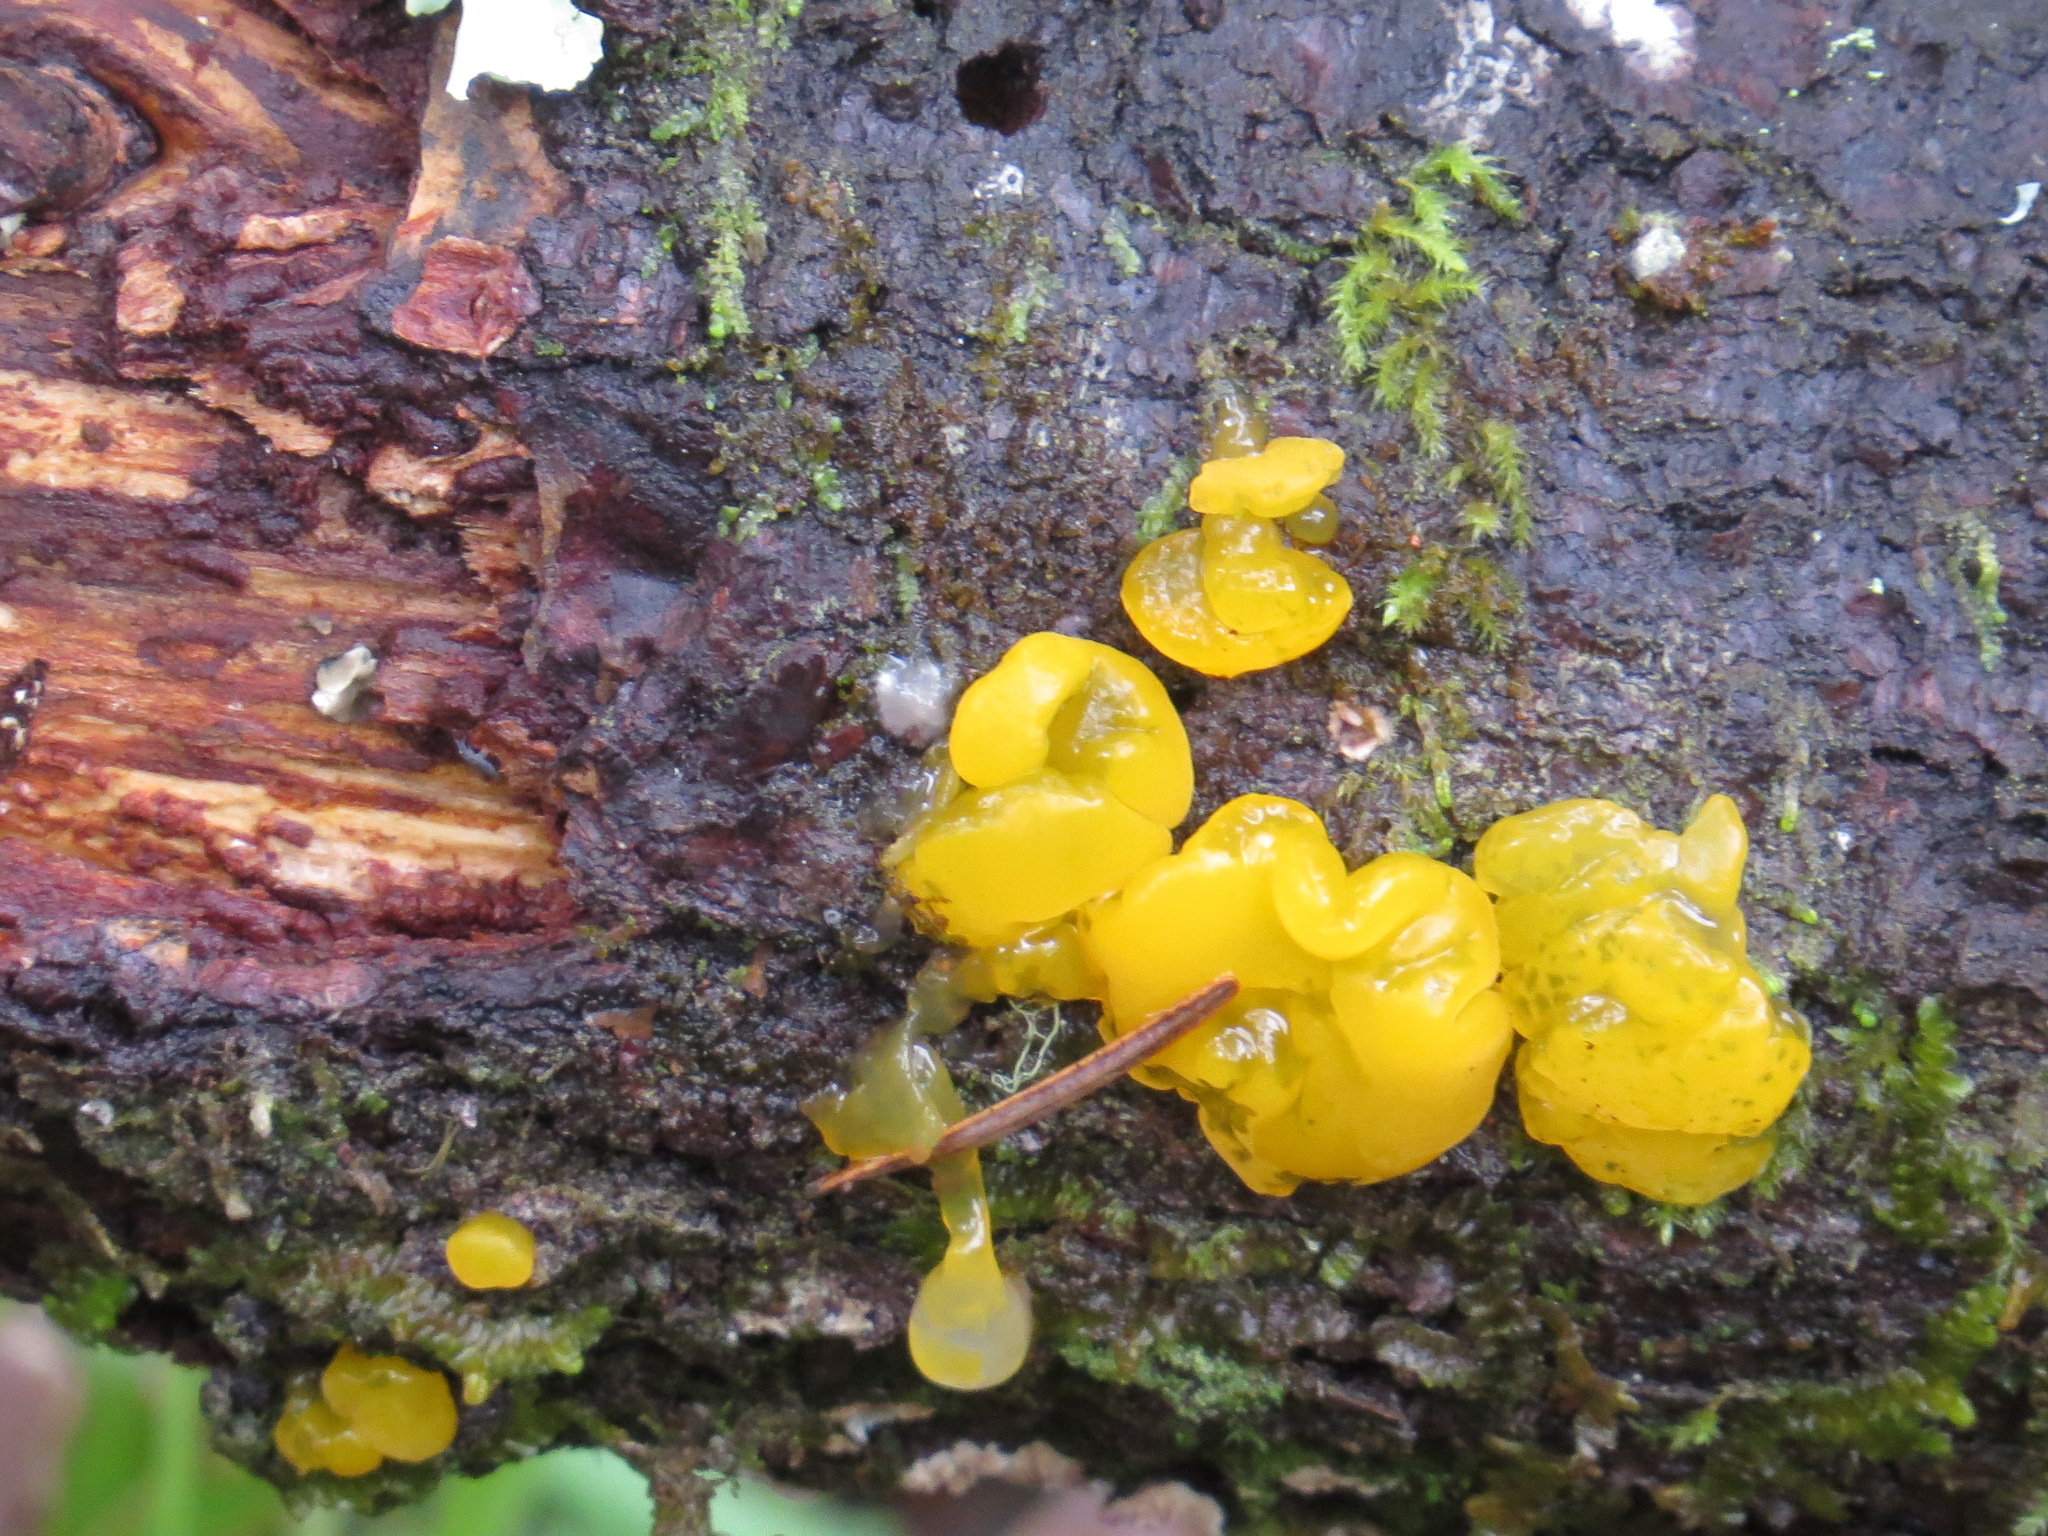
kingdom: Fungi
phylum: Basidiomycota
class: Dacrymycetes
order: Dacrymycetales
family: Dacrymycetaceae
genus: Dacrymyces
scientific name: Dacrymyces chrysospermus
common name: Orange jelly spot
